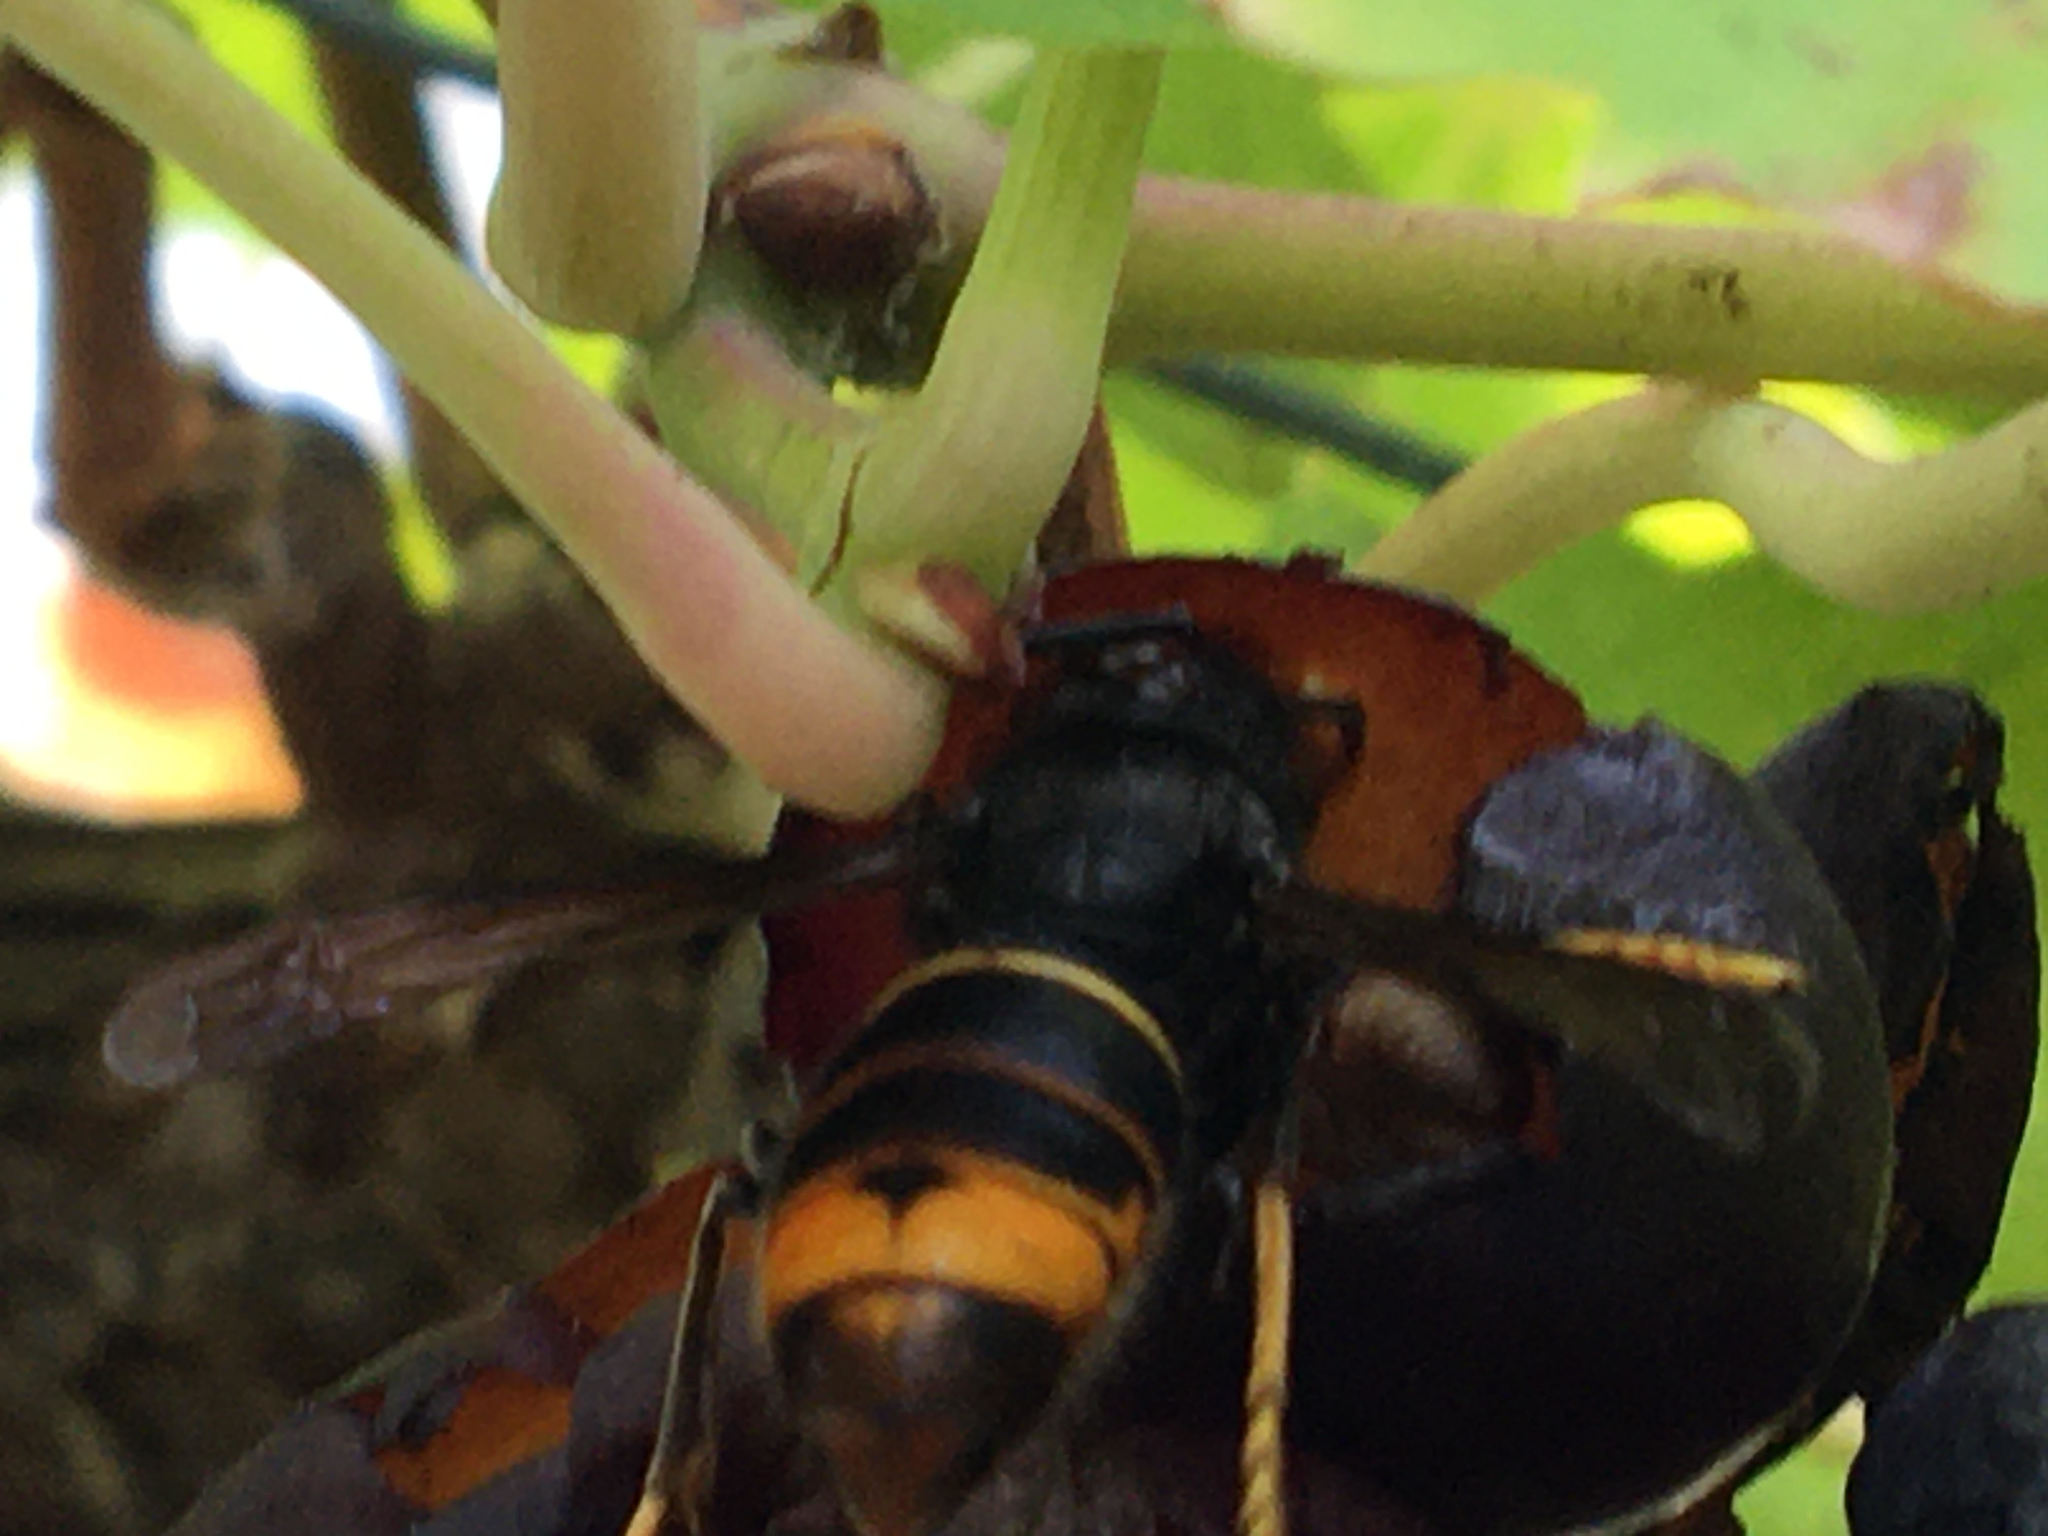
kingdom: Animalia
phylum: Arthropoda
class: Insecta
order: Hymenoptera
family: Vespidae
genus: Vespa
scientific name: Vespa velutina
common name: Asian hornet
